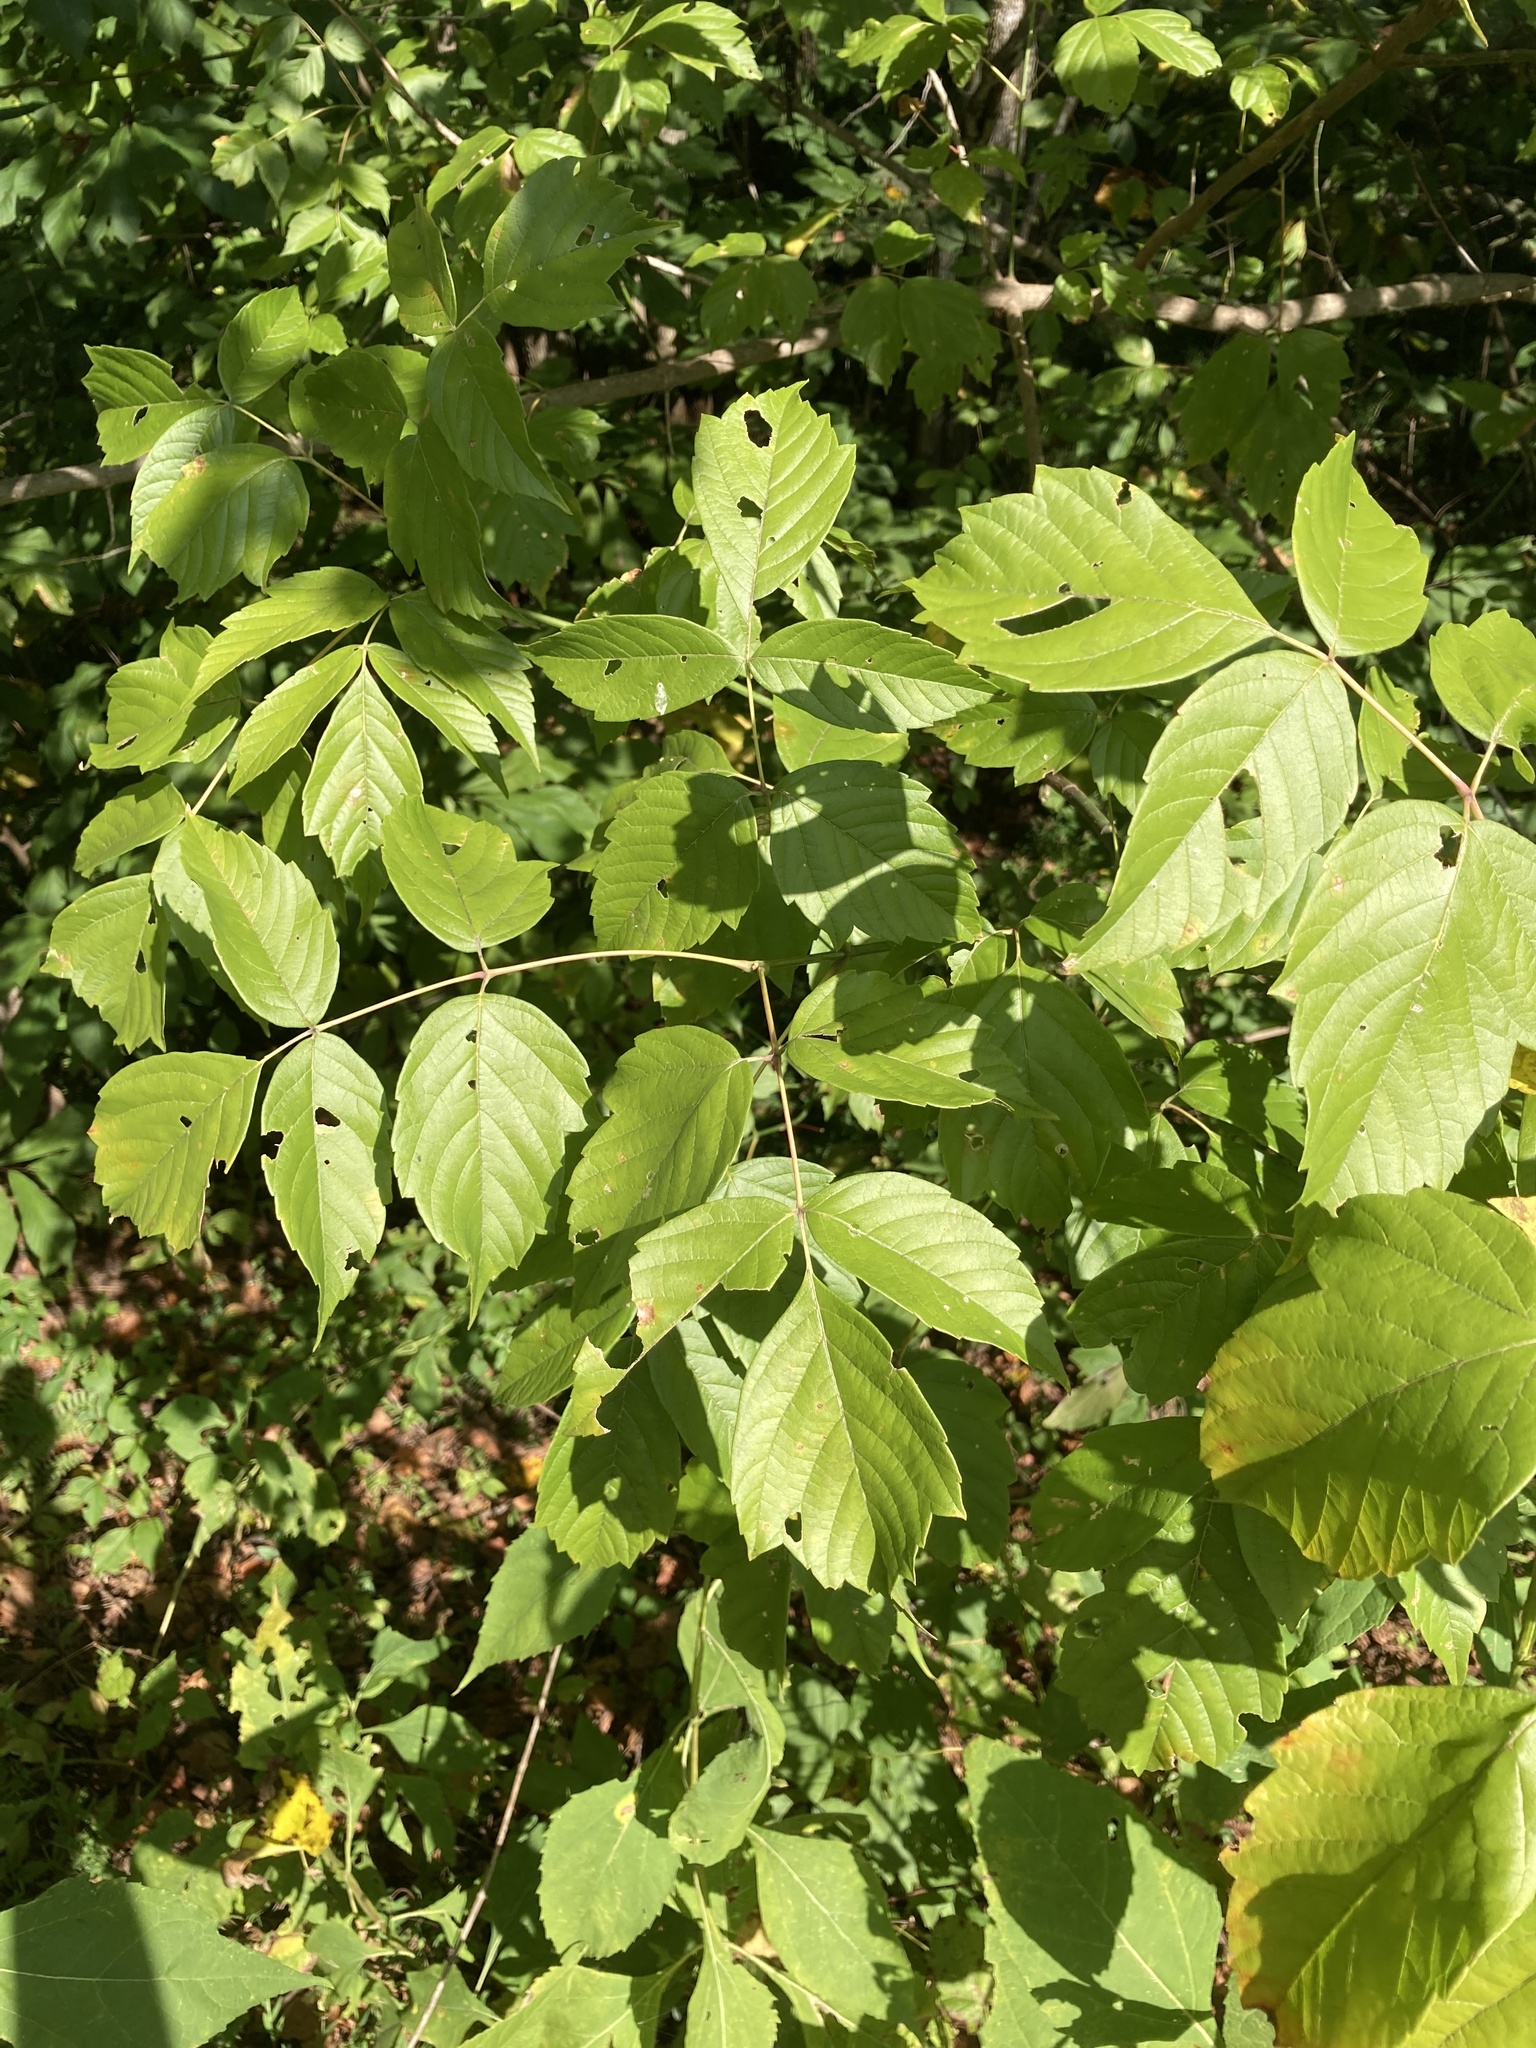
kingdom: Plantae
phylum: Tracheophyta
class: Magnoliopsida
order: Sapindales
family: Sapindaceae
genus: Acer
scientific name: Acer negundo
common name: Ashleaf maple
